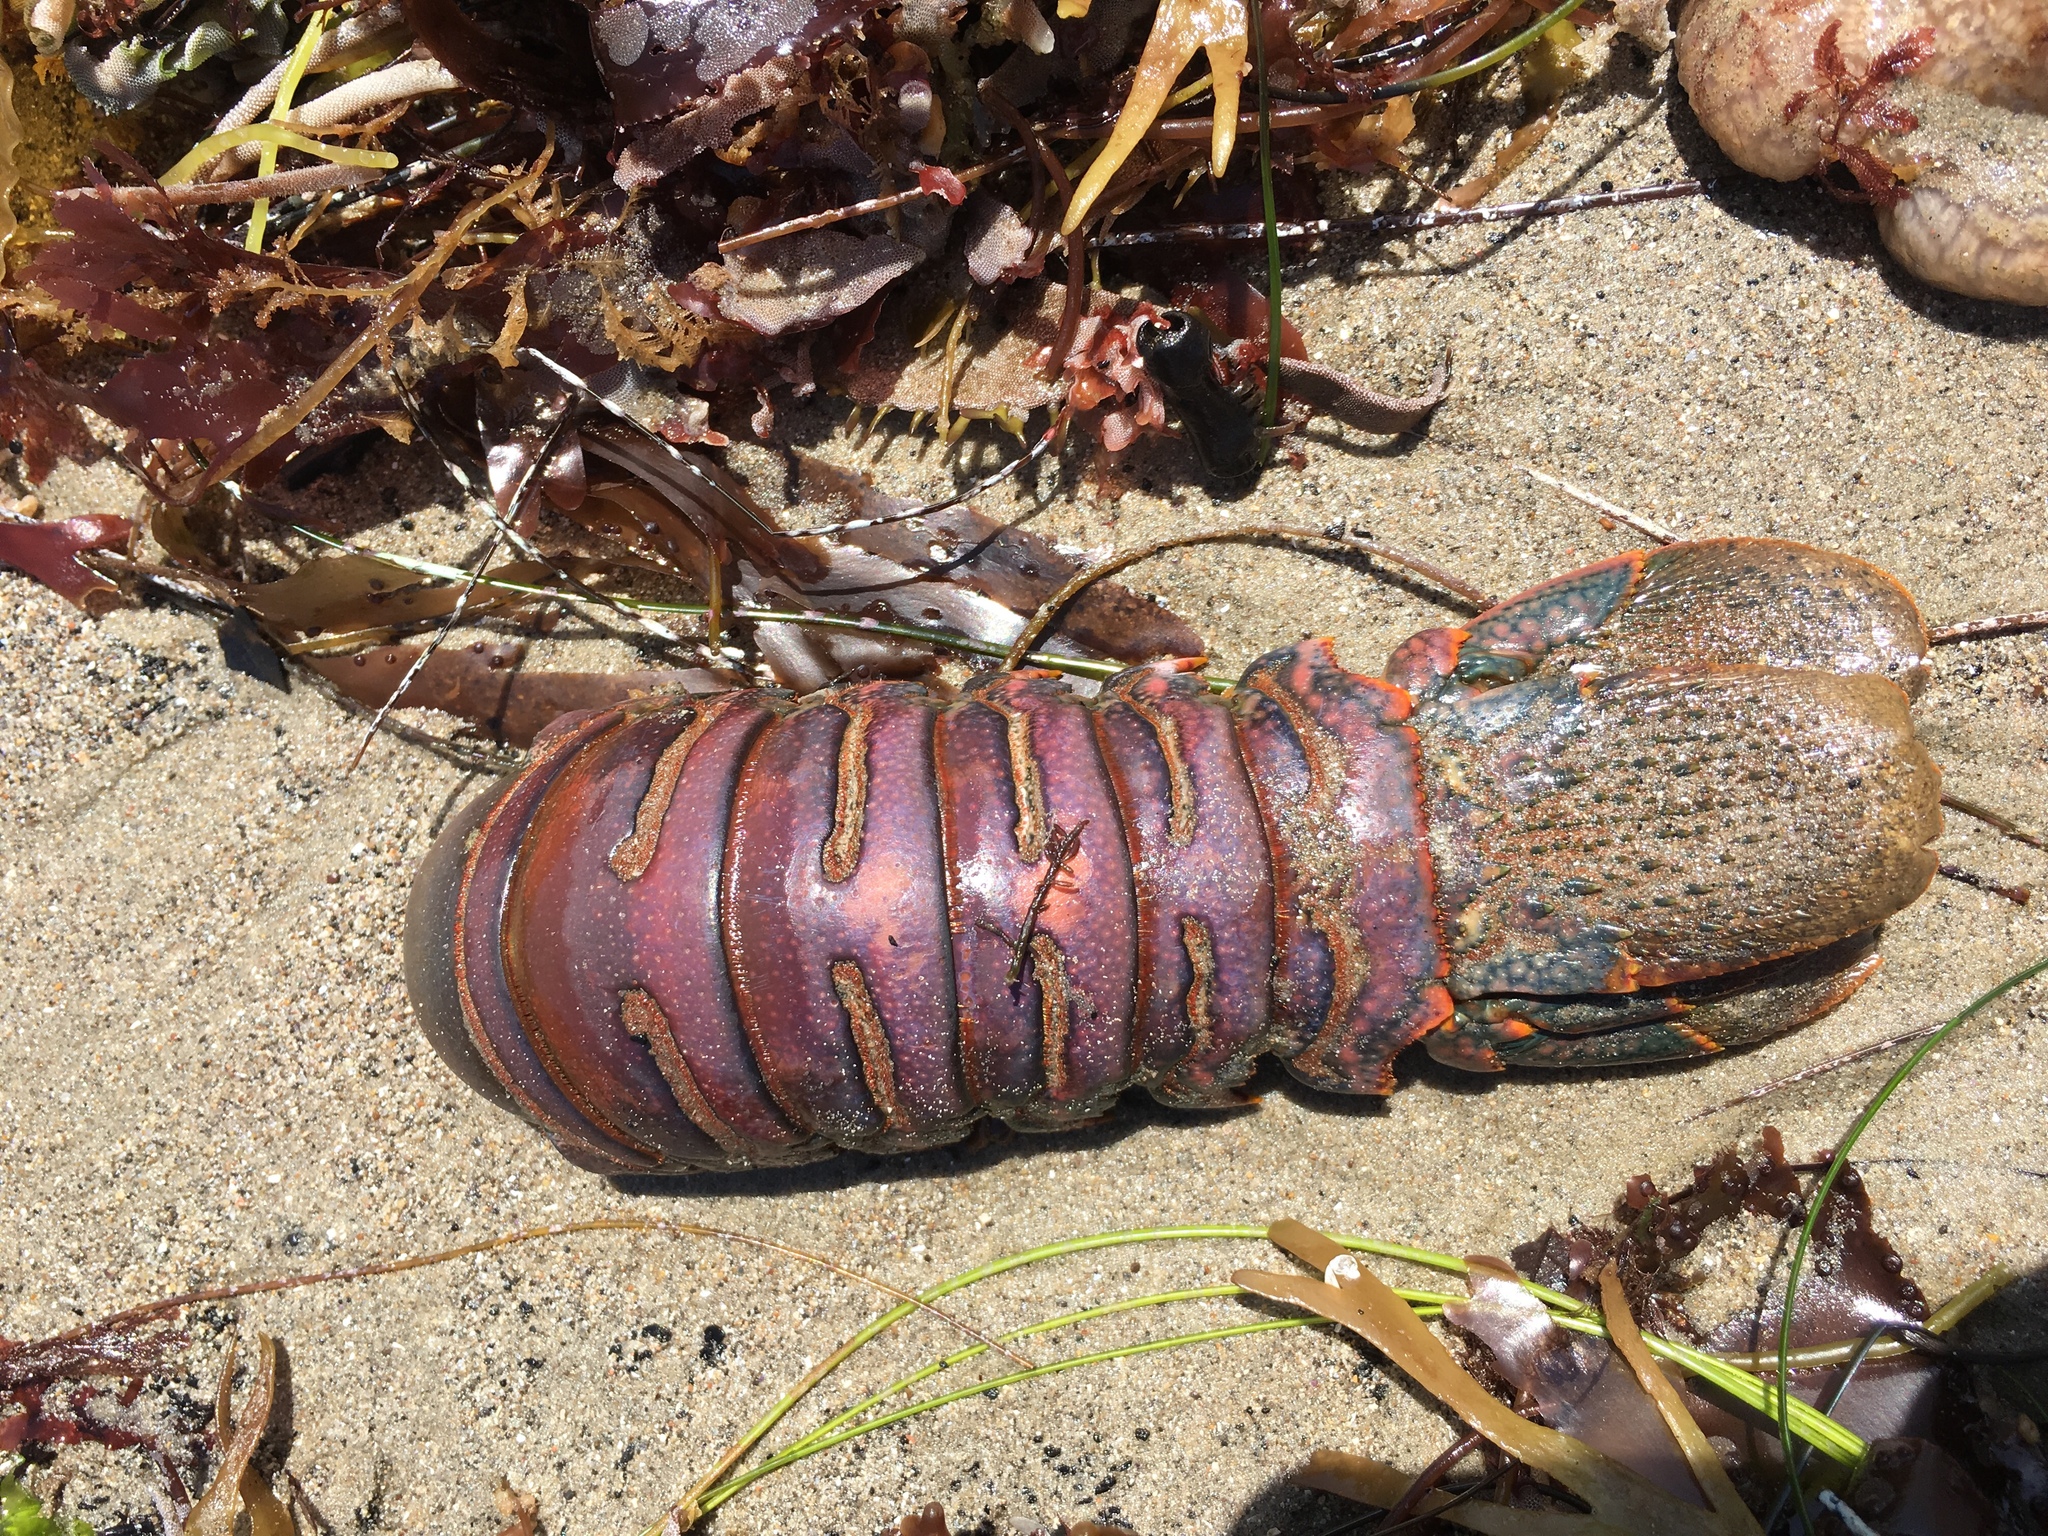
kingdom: Animalia
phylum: Arthropoda
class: Malacostraca
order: Decapoda
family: Palinuridae
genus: Panulirus
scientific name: Panulirus interruptus
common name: California spiny lobster
